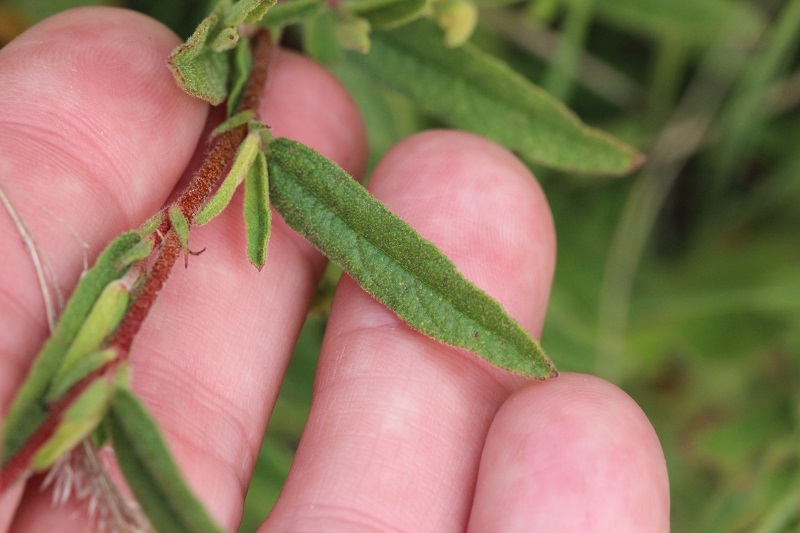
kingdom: Plantae
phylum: Tracheophyta
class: Magnoliopsida
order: Malvales
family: Malvaceae
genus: Hermannia
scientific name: Hermannia salviifolia
